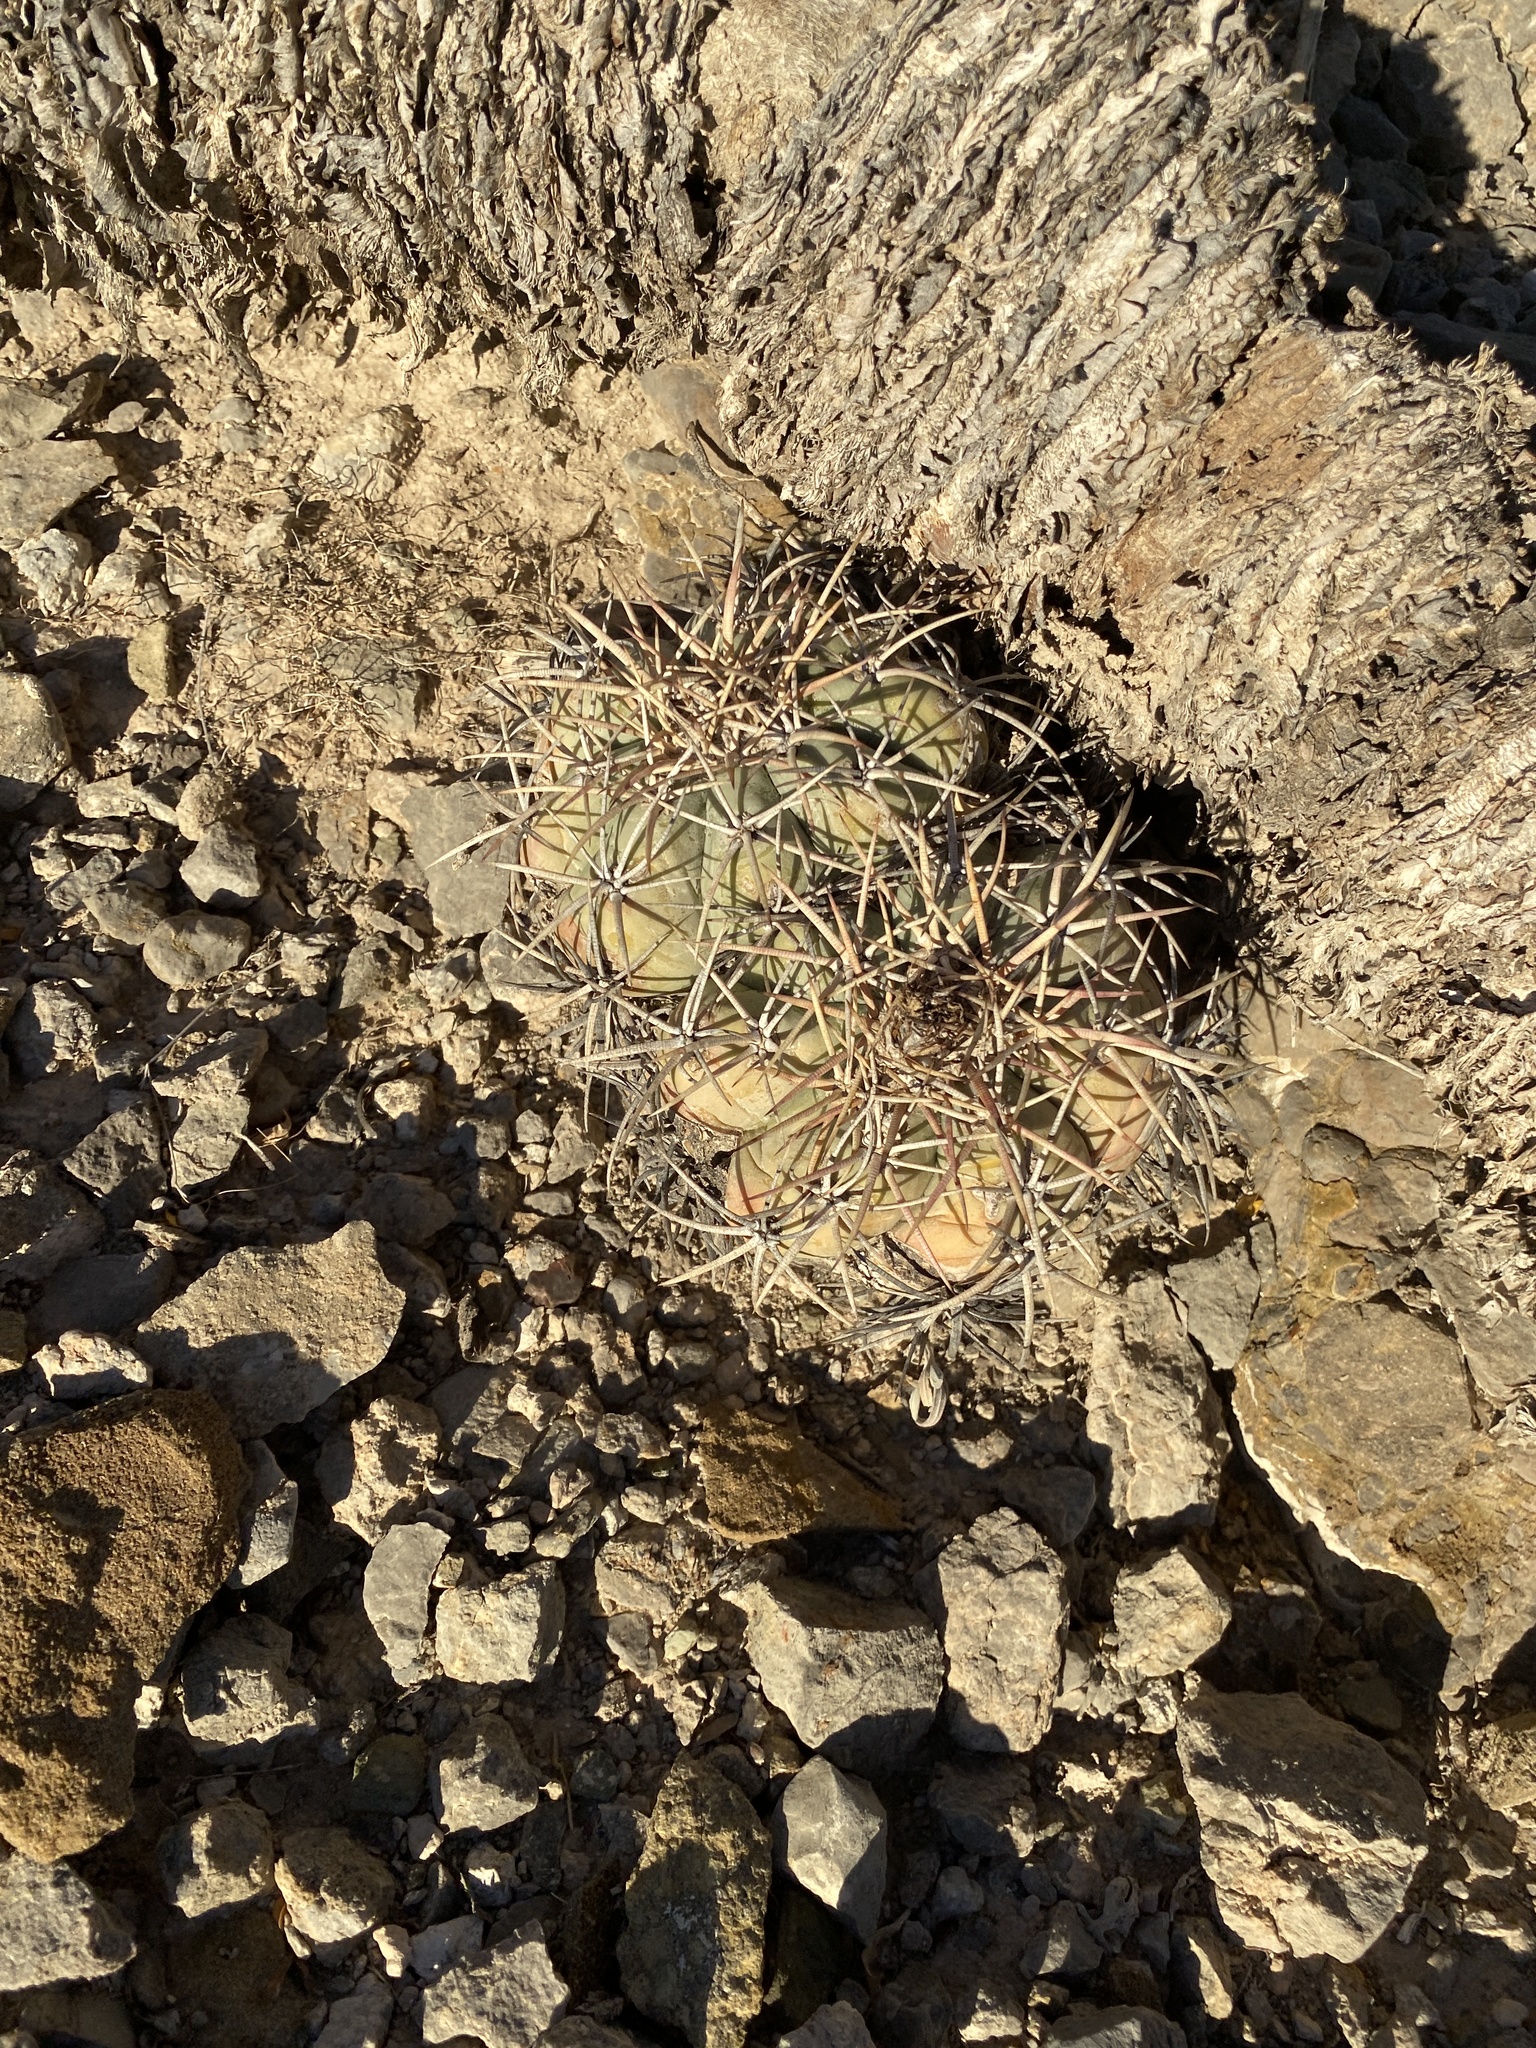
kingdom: Plantae
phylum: Tracheophyta
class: Magnoliopsida
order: Caryophyllales
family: Cactaceae
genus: Echinocactus
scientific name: Echinocactus horizonthalonius
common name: Devilshead
